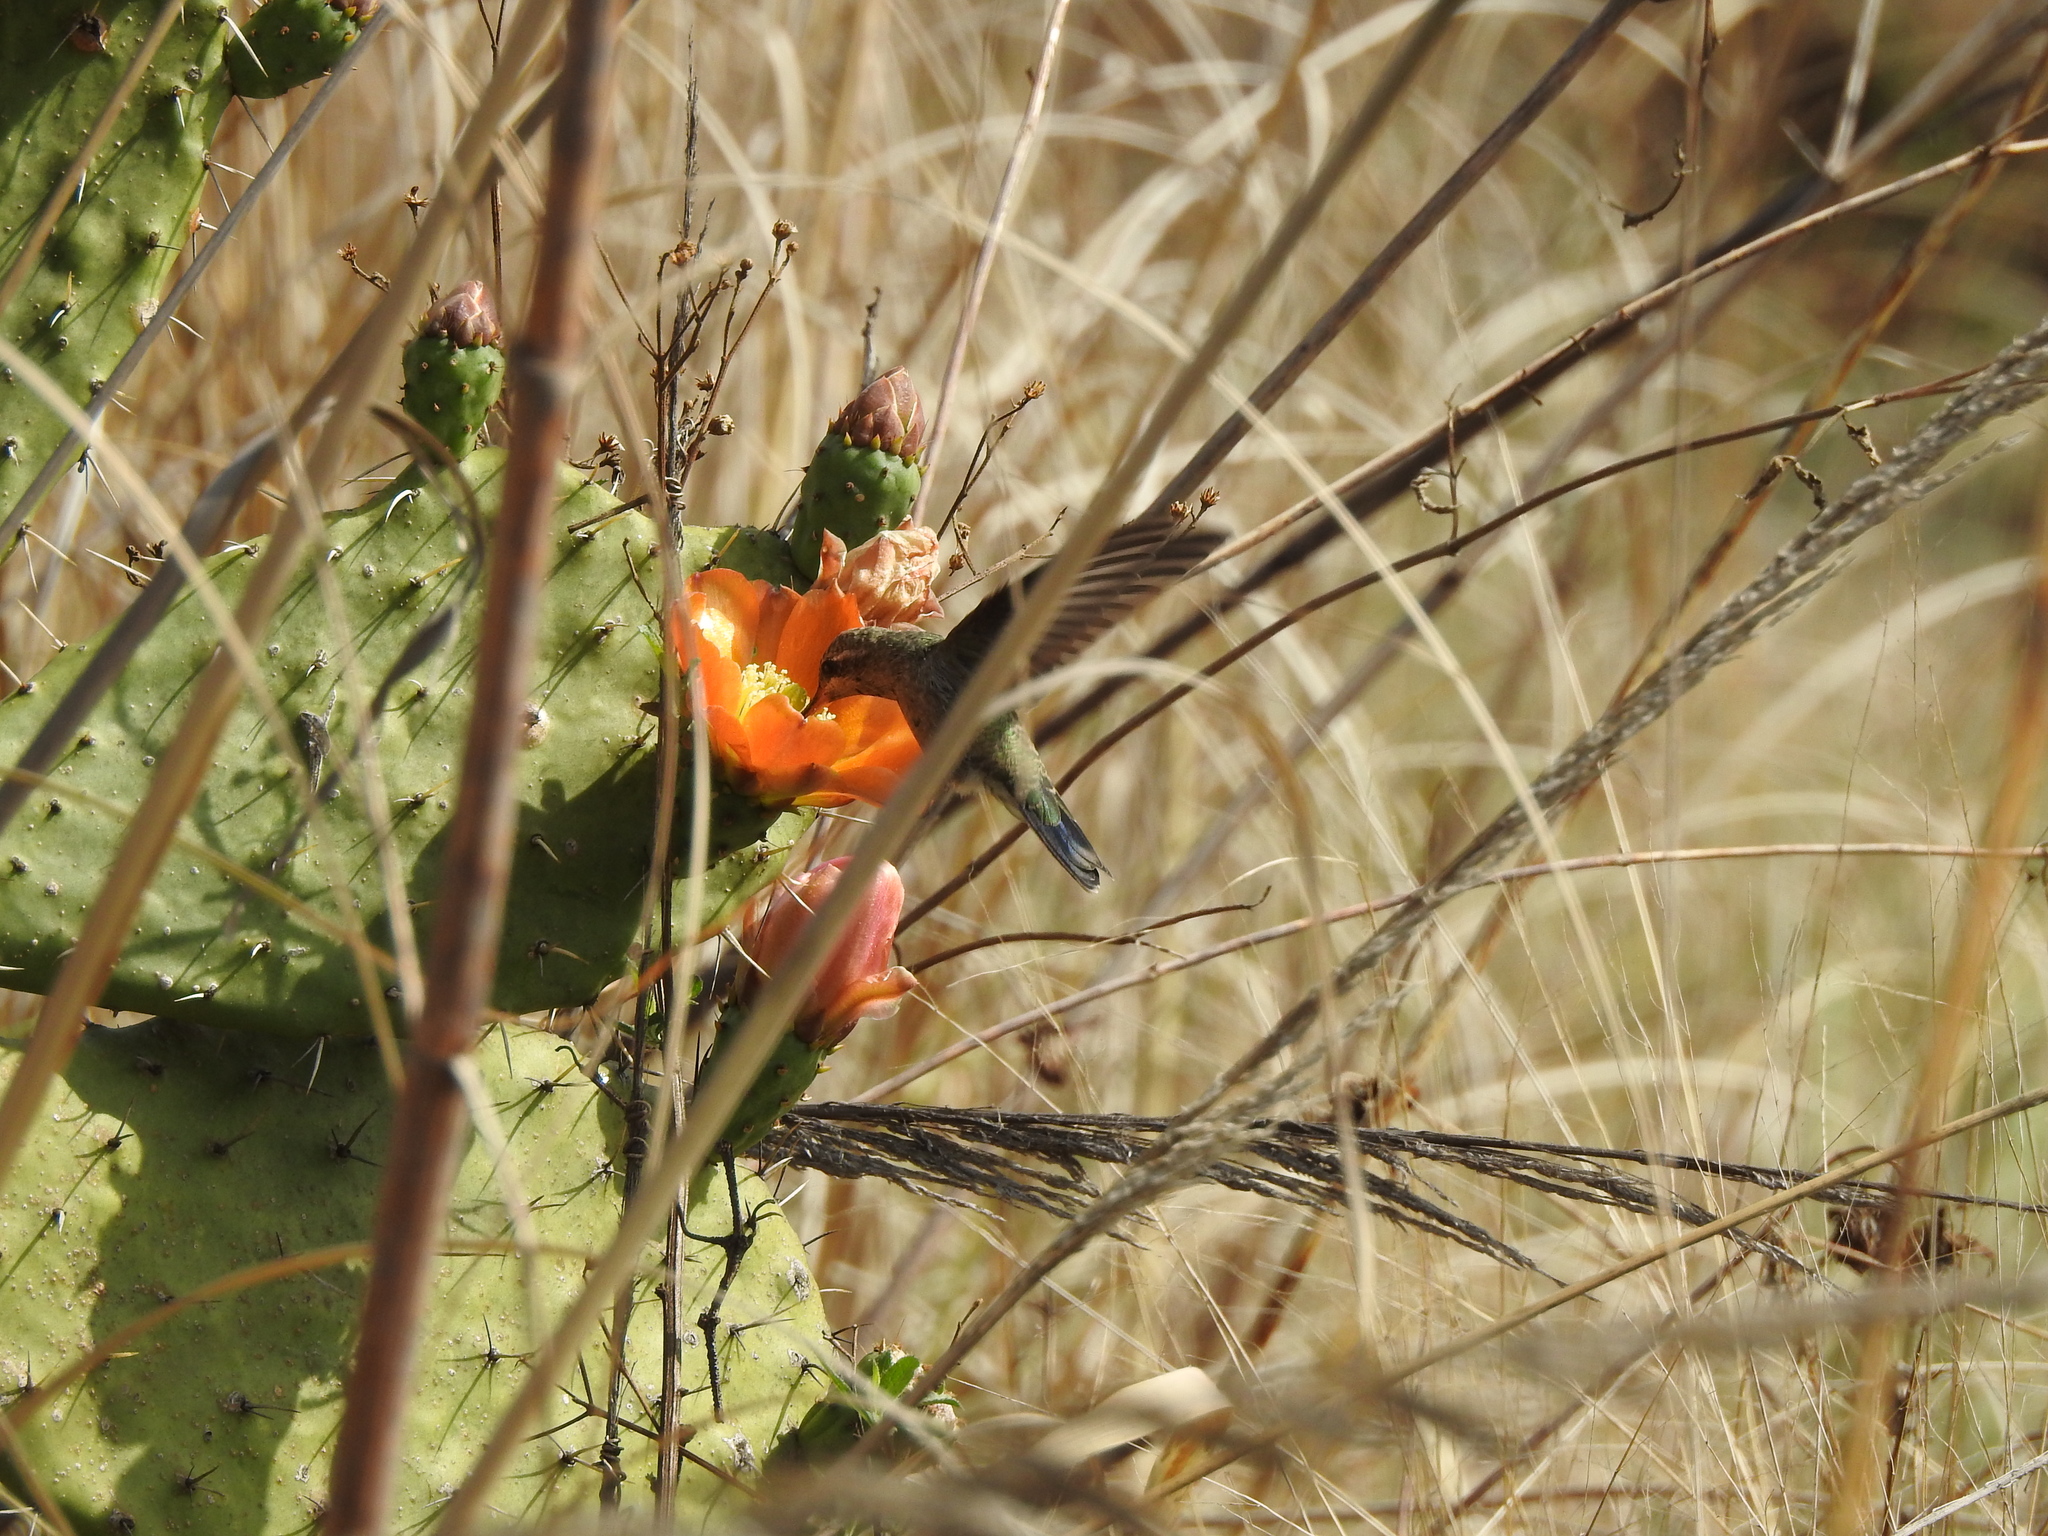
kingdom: Animalia
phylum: Chordata
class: Aves
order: Apodiformes
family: Trochilidae
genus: Cynanthus
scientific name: Cynanthus latirostris
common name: Broad-billed hummingbird
